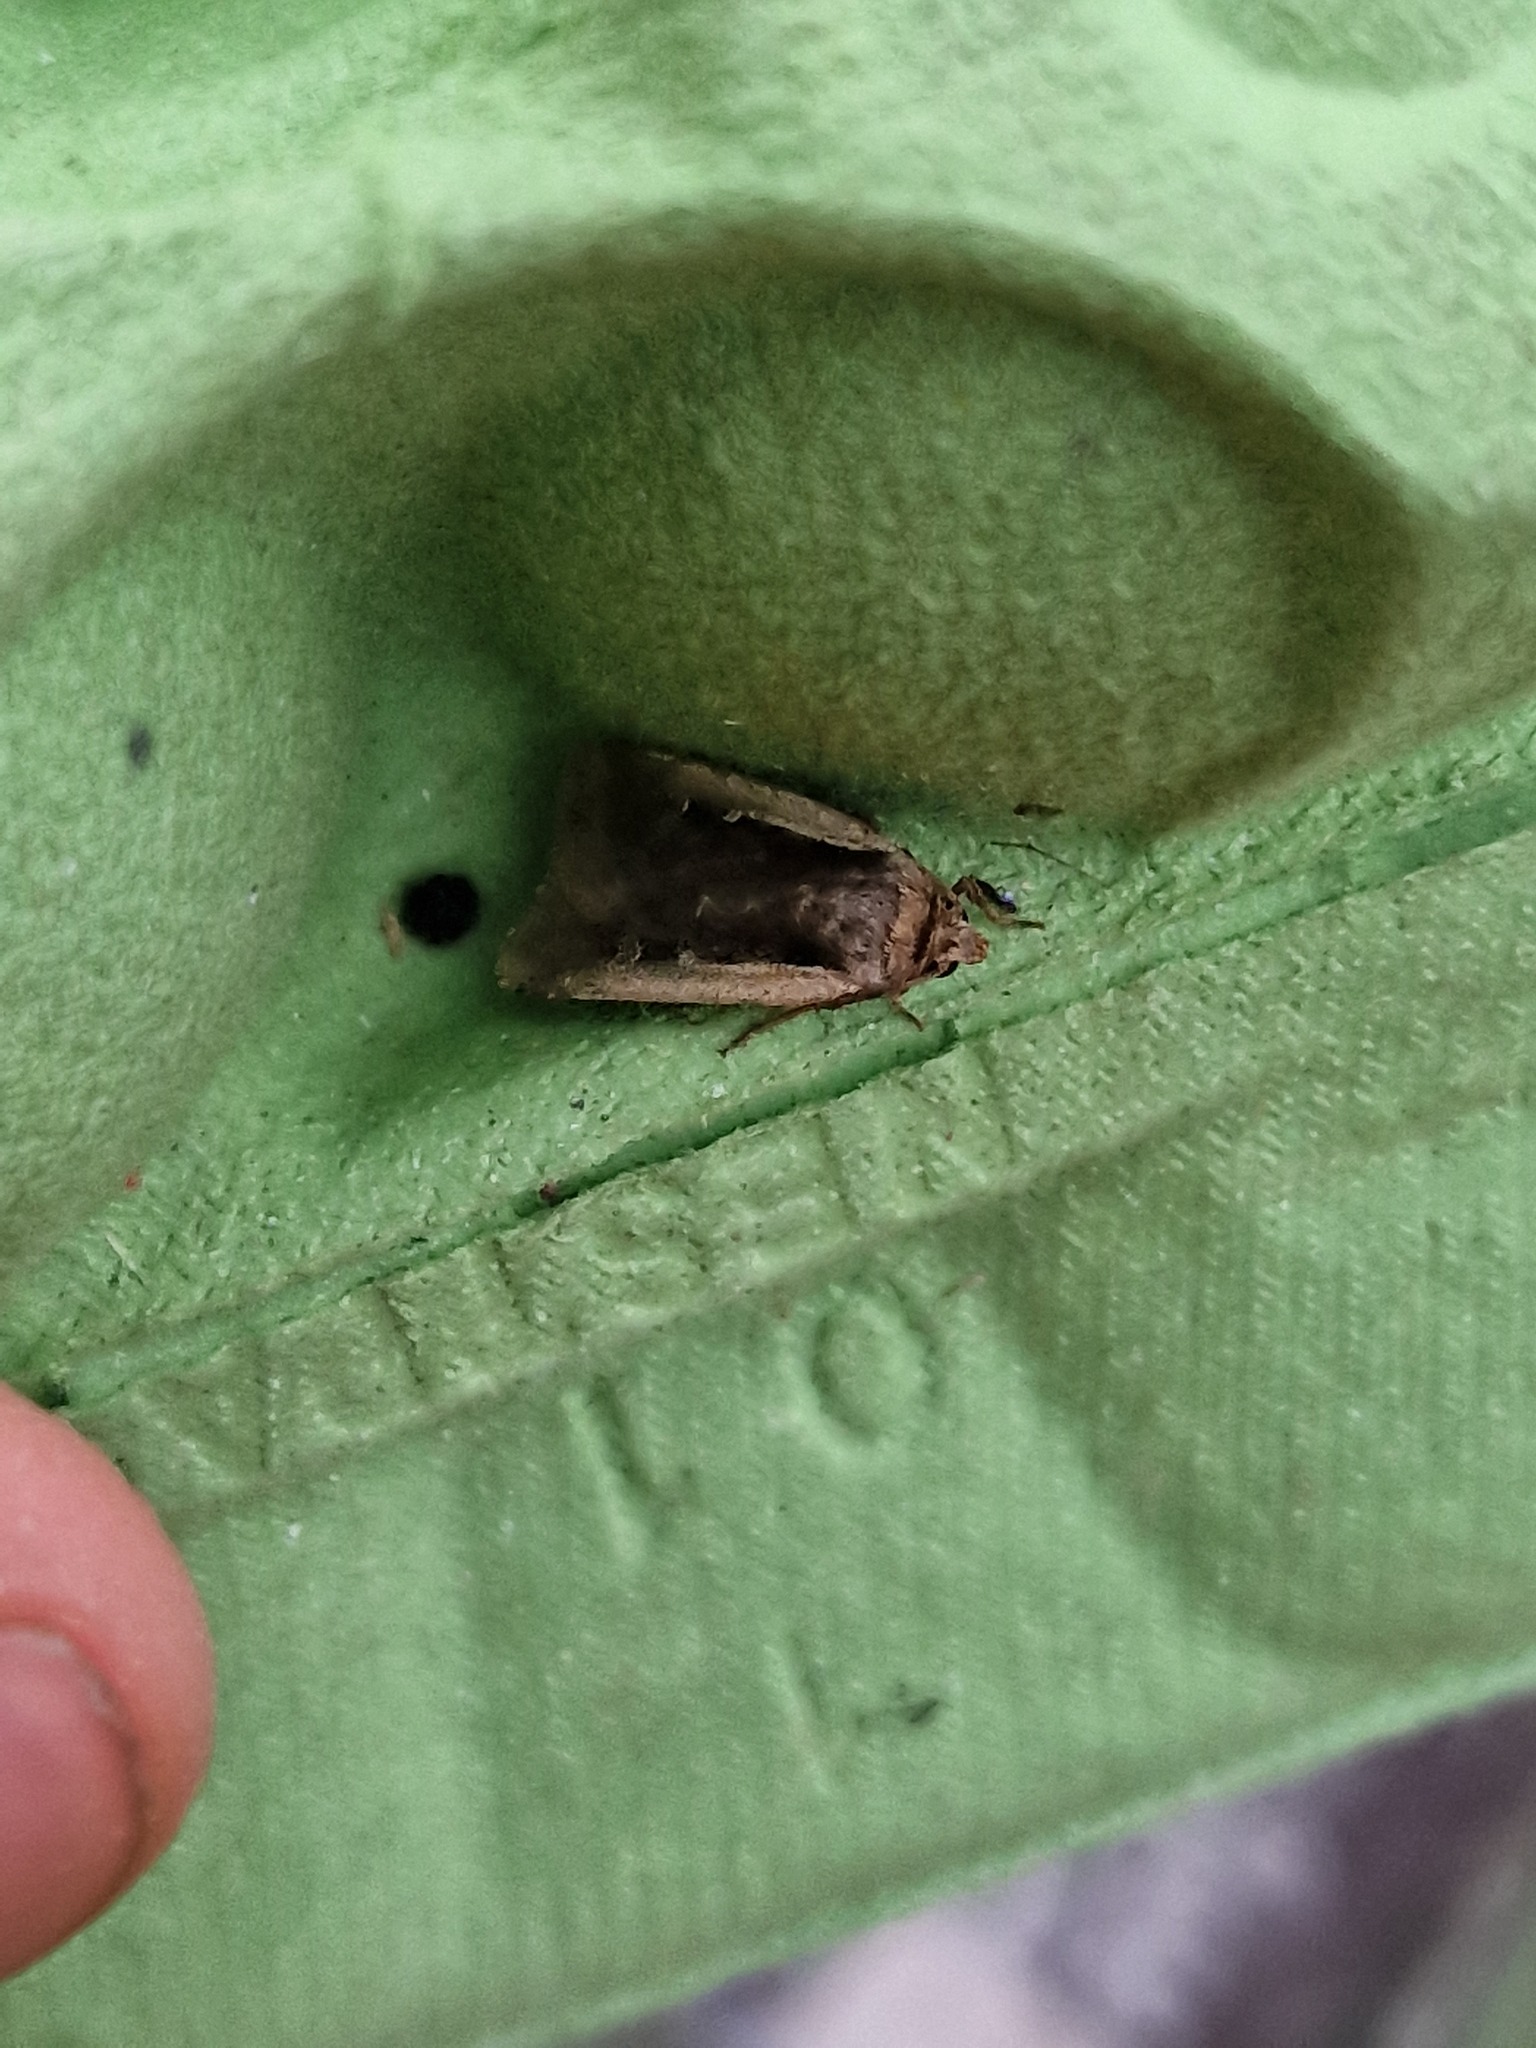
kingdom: Animalia
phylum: Arthropoda
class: Insecta
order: Lepidoptera
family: Noctuidae
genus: Ochropleura
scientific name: Ochropleura plecta
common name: Flame shoulder
